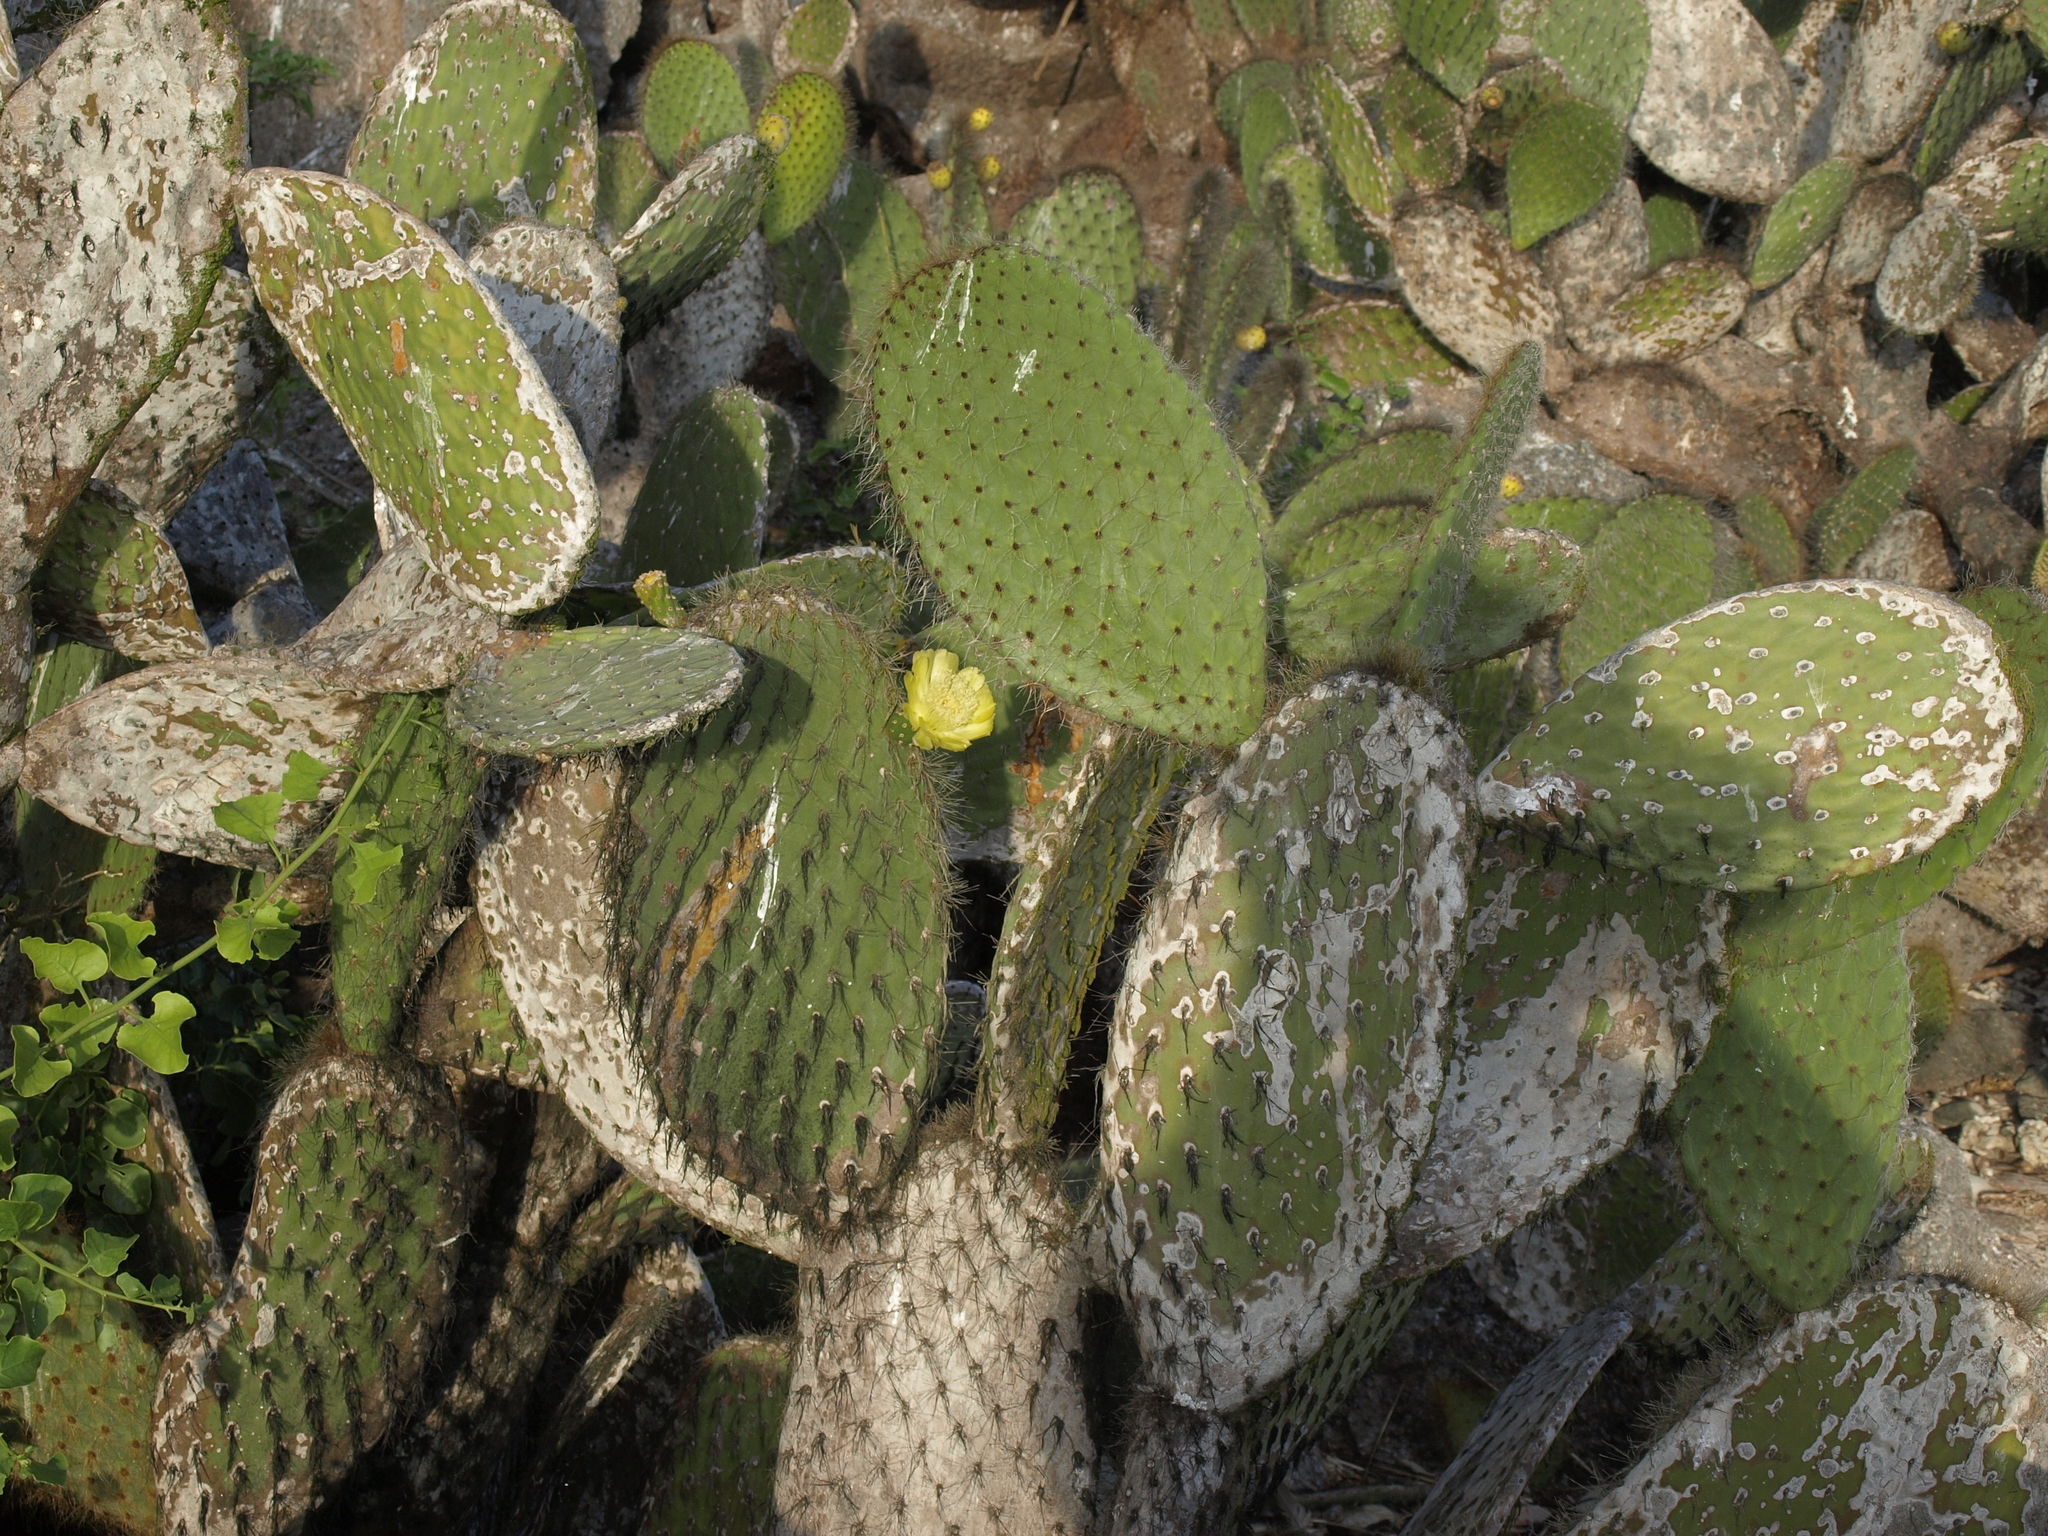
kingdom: Plantae
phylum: Tracheophyta
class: Magnoliopsida
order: Caryophyllales
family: Cactaceae
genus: Opuntia
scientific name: Opuntia galapageia
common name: Galápagos prickly pear
